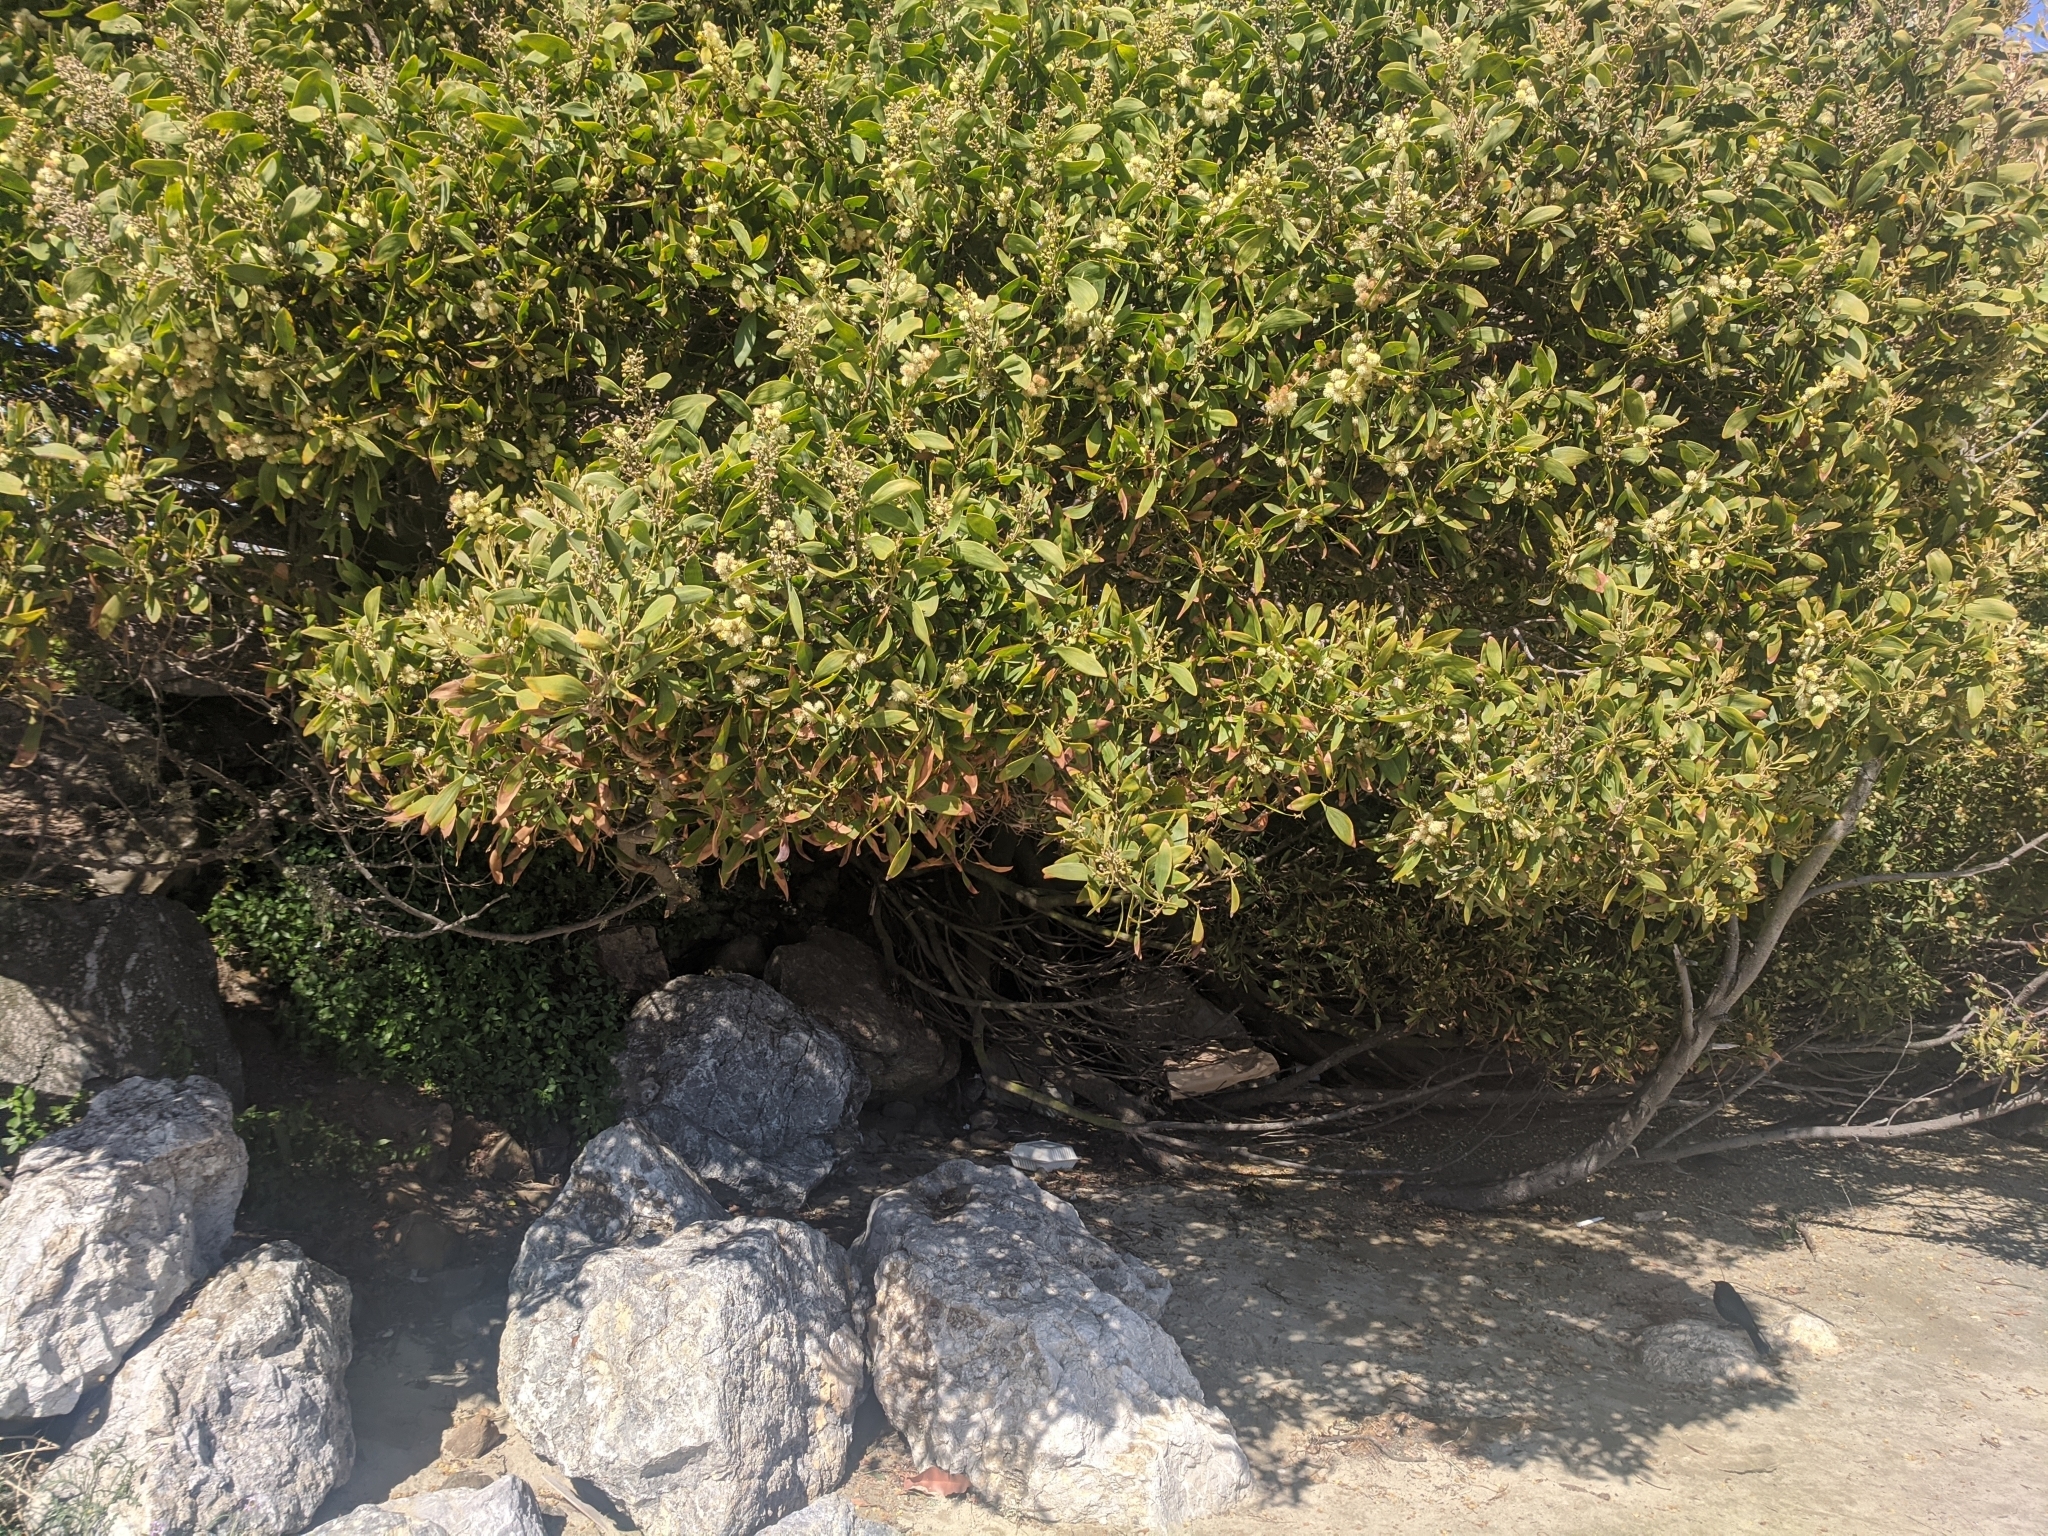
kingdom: Plantae
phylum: Tracheophyta
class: Magnoliopsida
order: Fabales
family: Fabaceae
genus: Acacia
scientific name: Acacia melanoxylon
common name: Blackwood
